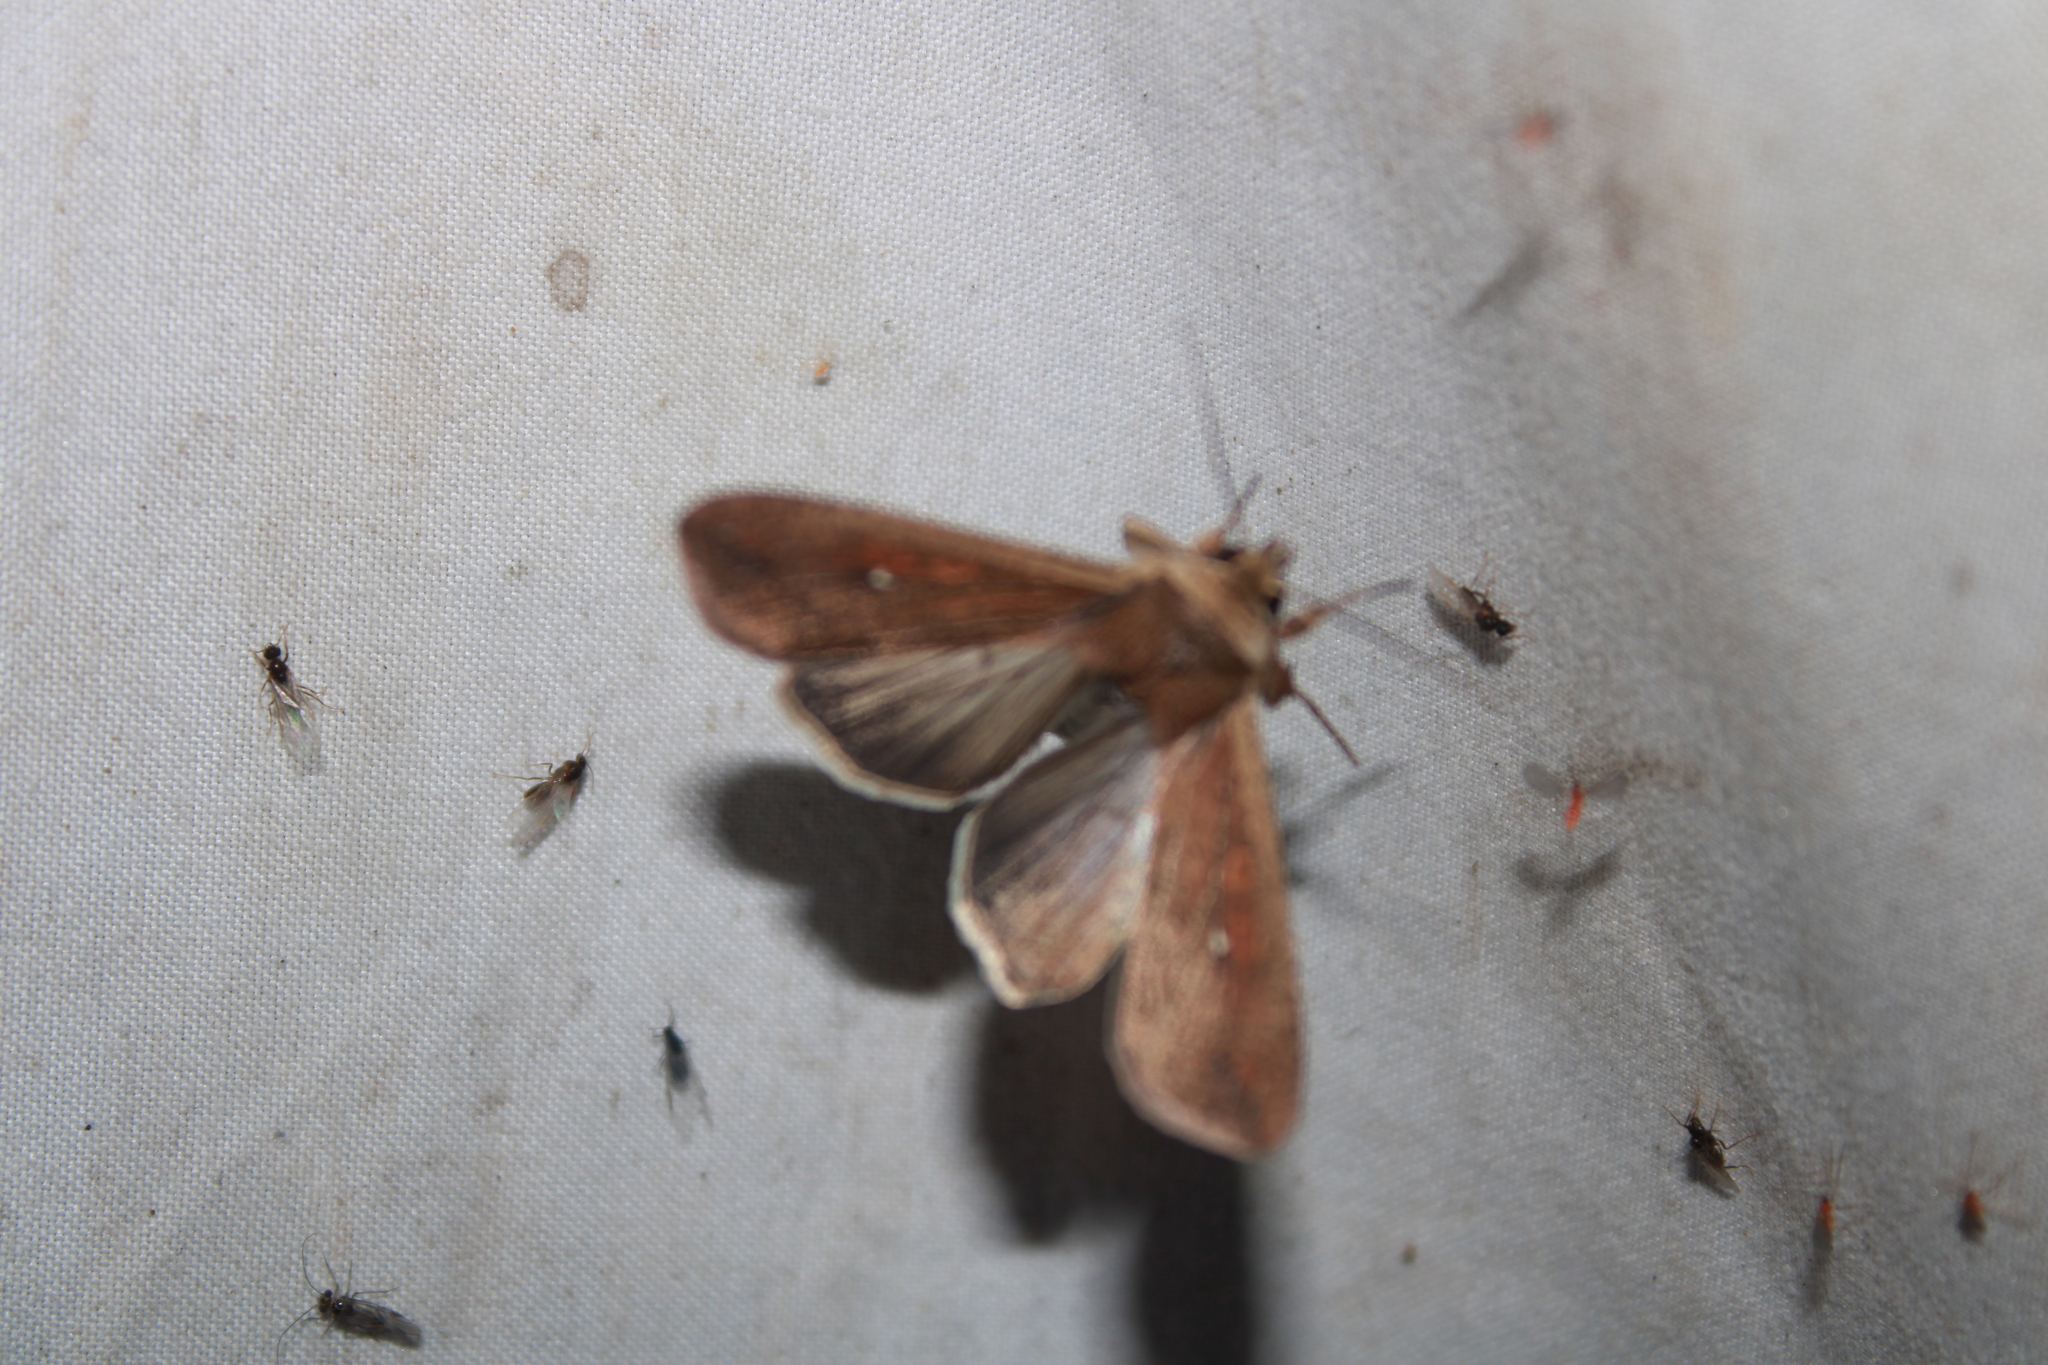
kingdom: Animalia
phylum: Arthropoda
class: Insecta
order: Lepidoptera
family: Noctuidae
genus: Mythimna
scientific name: Mythimna unipuncta
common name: White-speck
